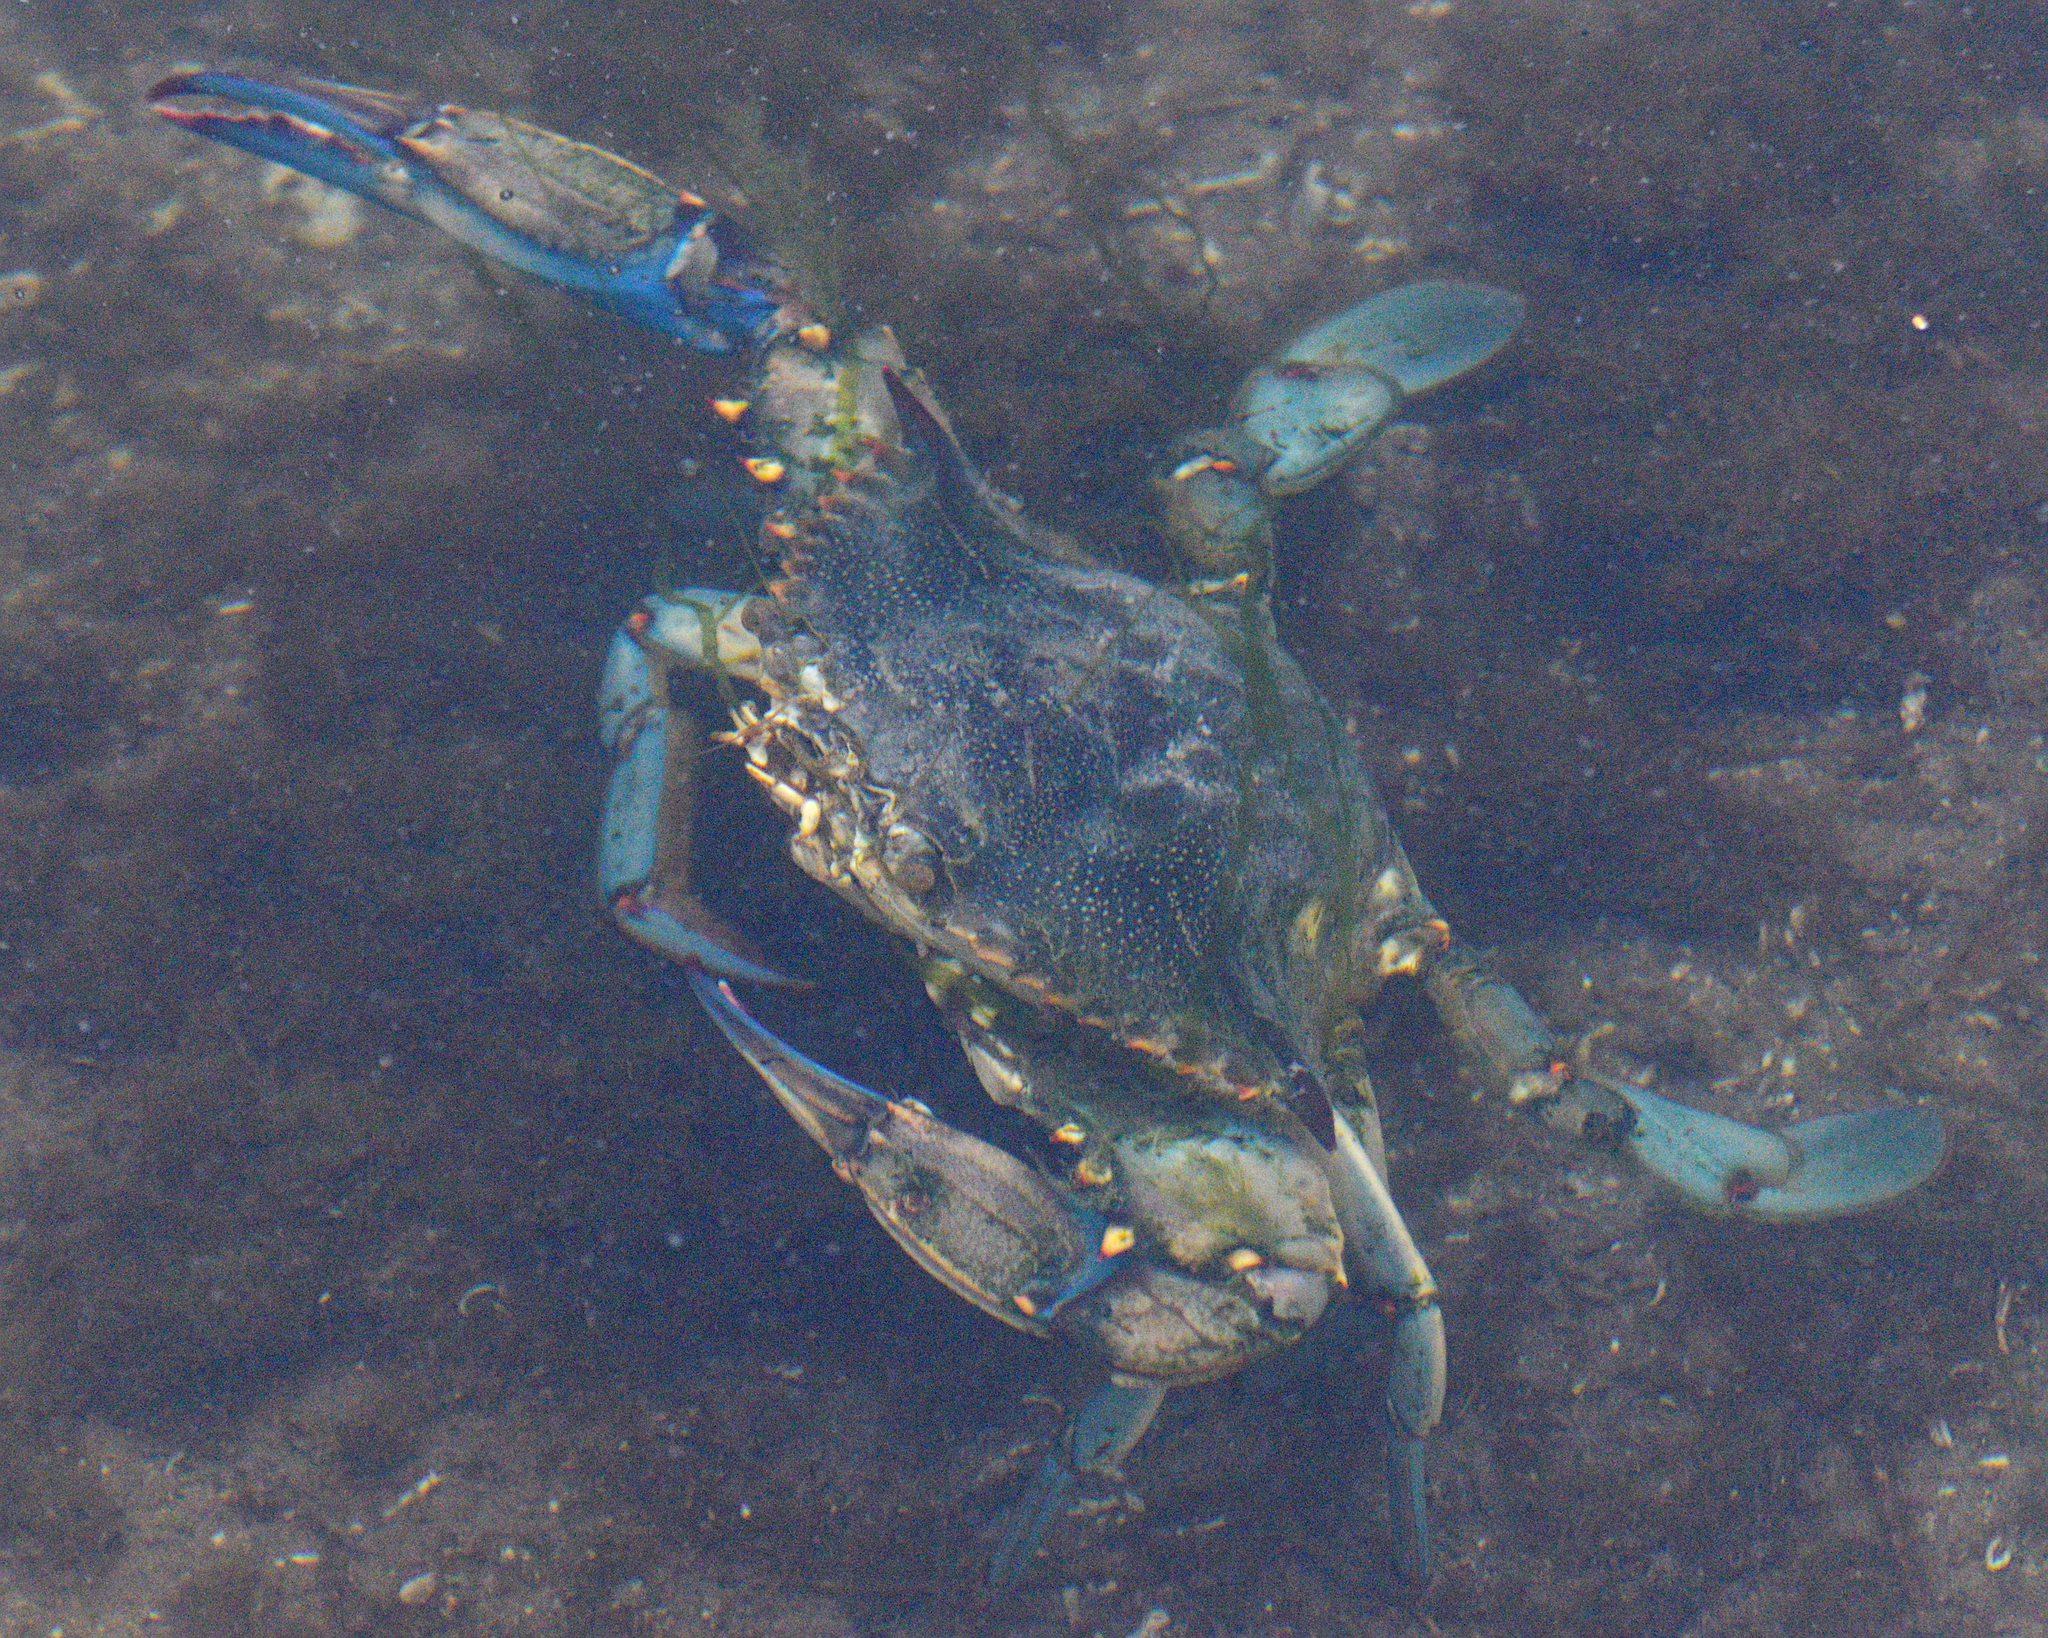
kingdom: Animalia
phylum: Arthropoda
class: Malacostraca
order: Decapoda
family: Portunidae
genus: Callinectes
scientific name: Callinectes sapidus
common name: Blue crab
